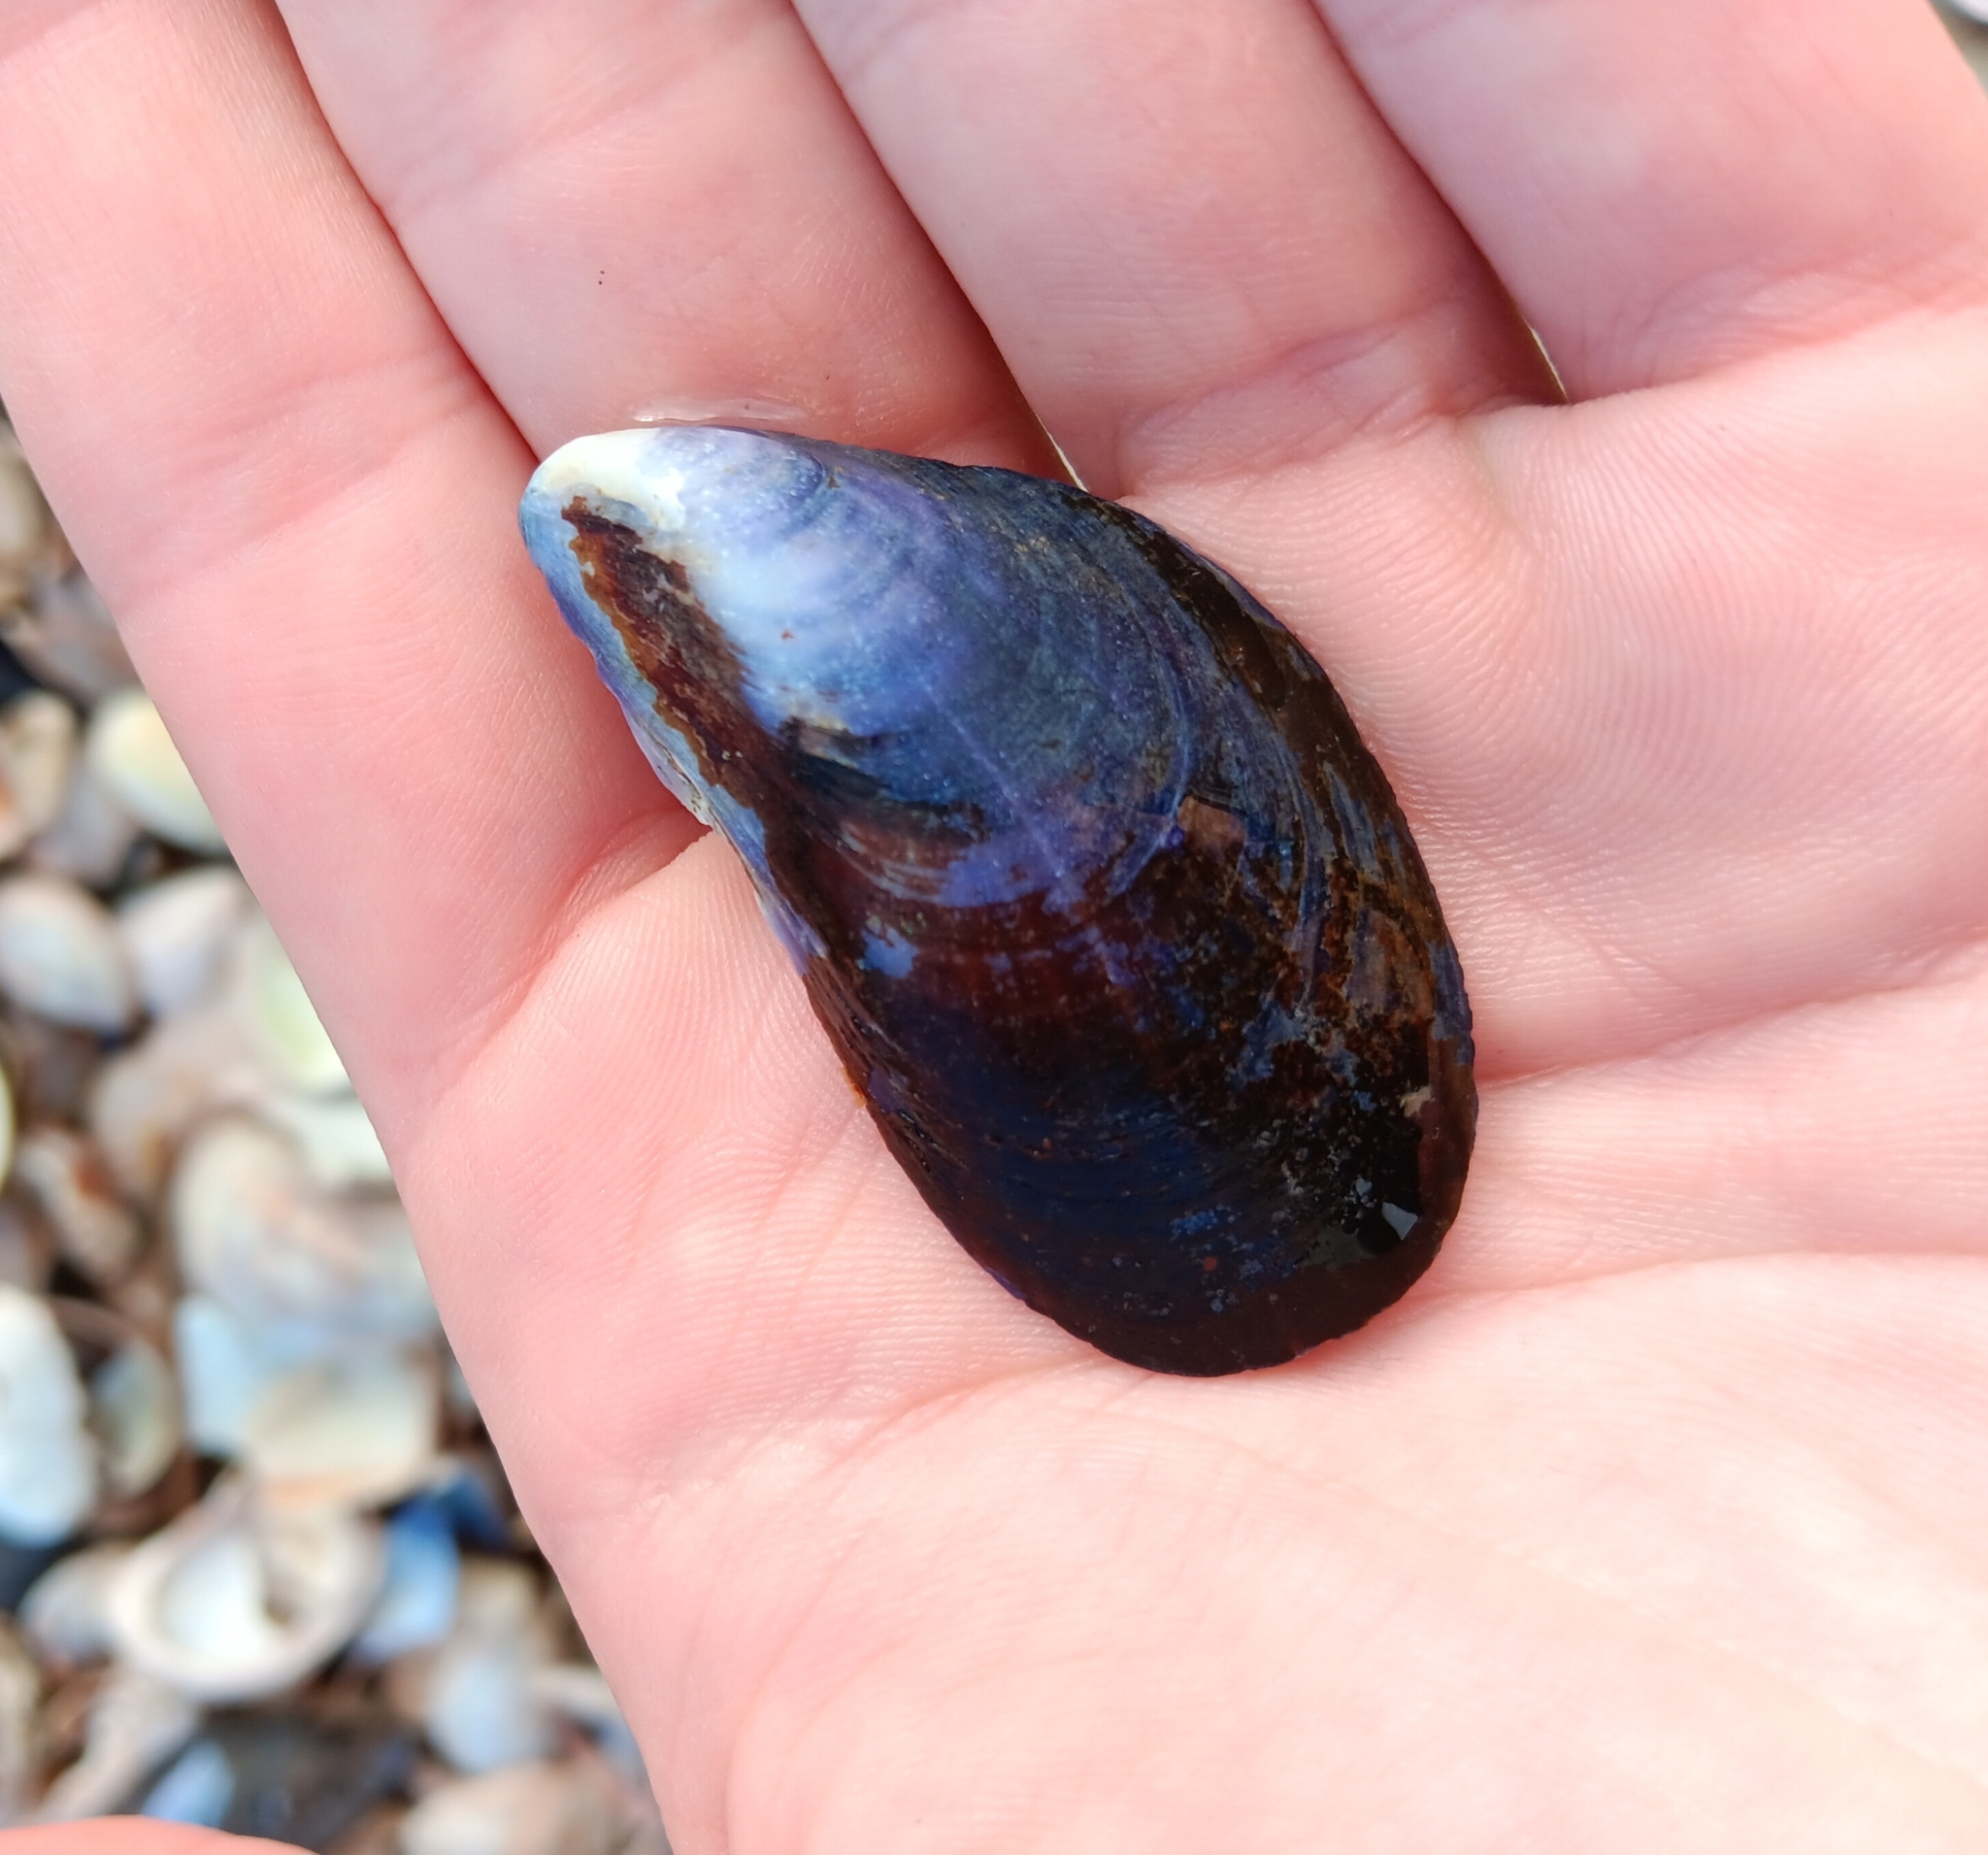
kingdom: Animalia
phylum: Mollusca
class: Bivalvia
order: Mytilida
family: Mytilidae
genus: Mytilus
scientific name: Mytilus edulis
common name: Blue mussel
